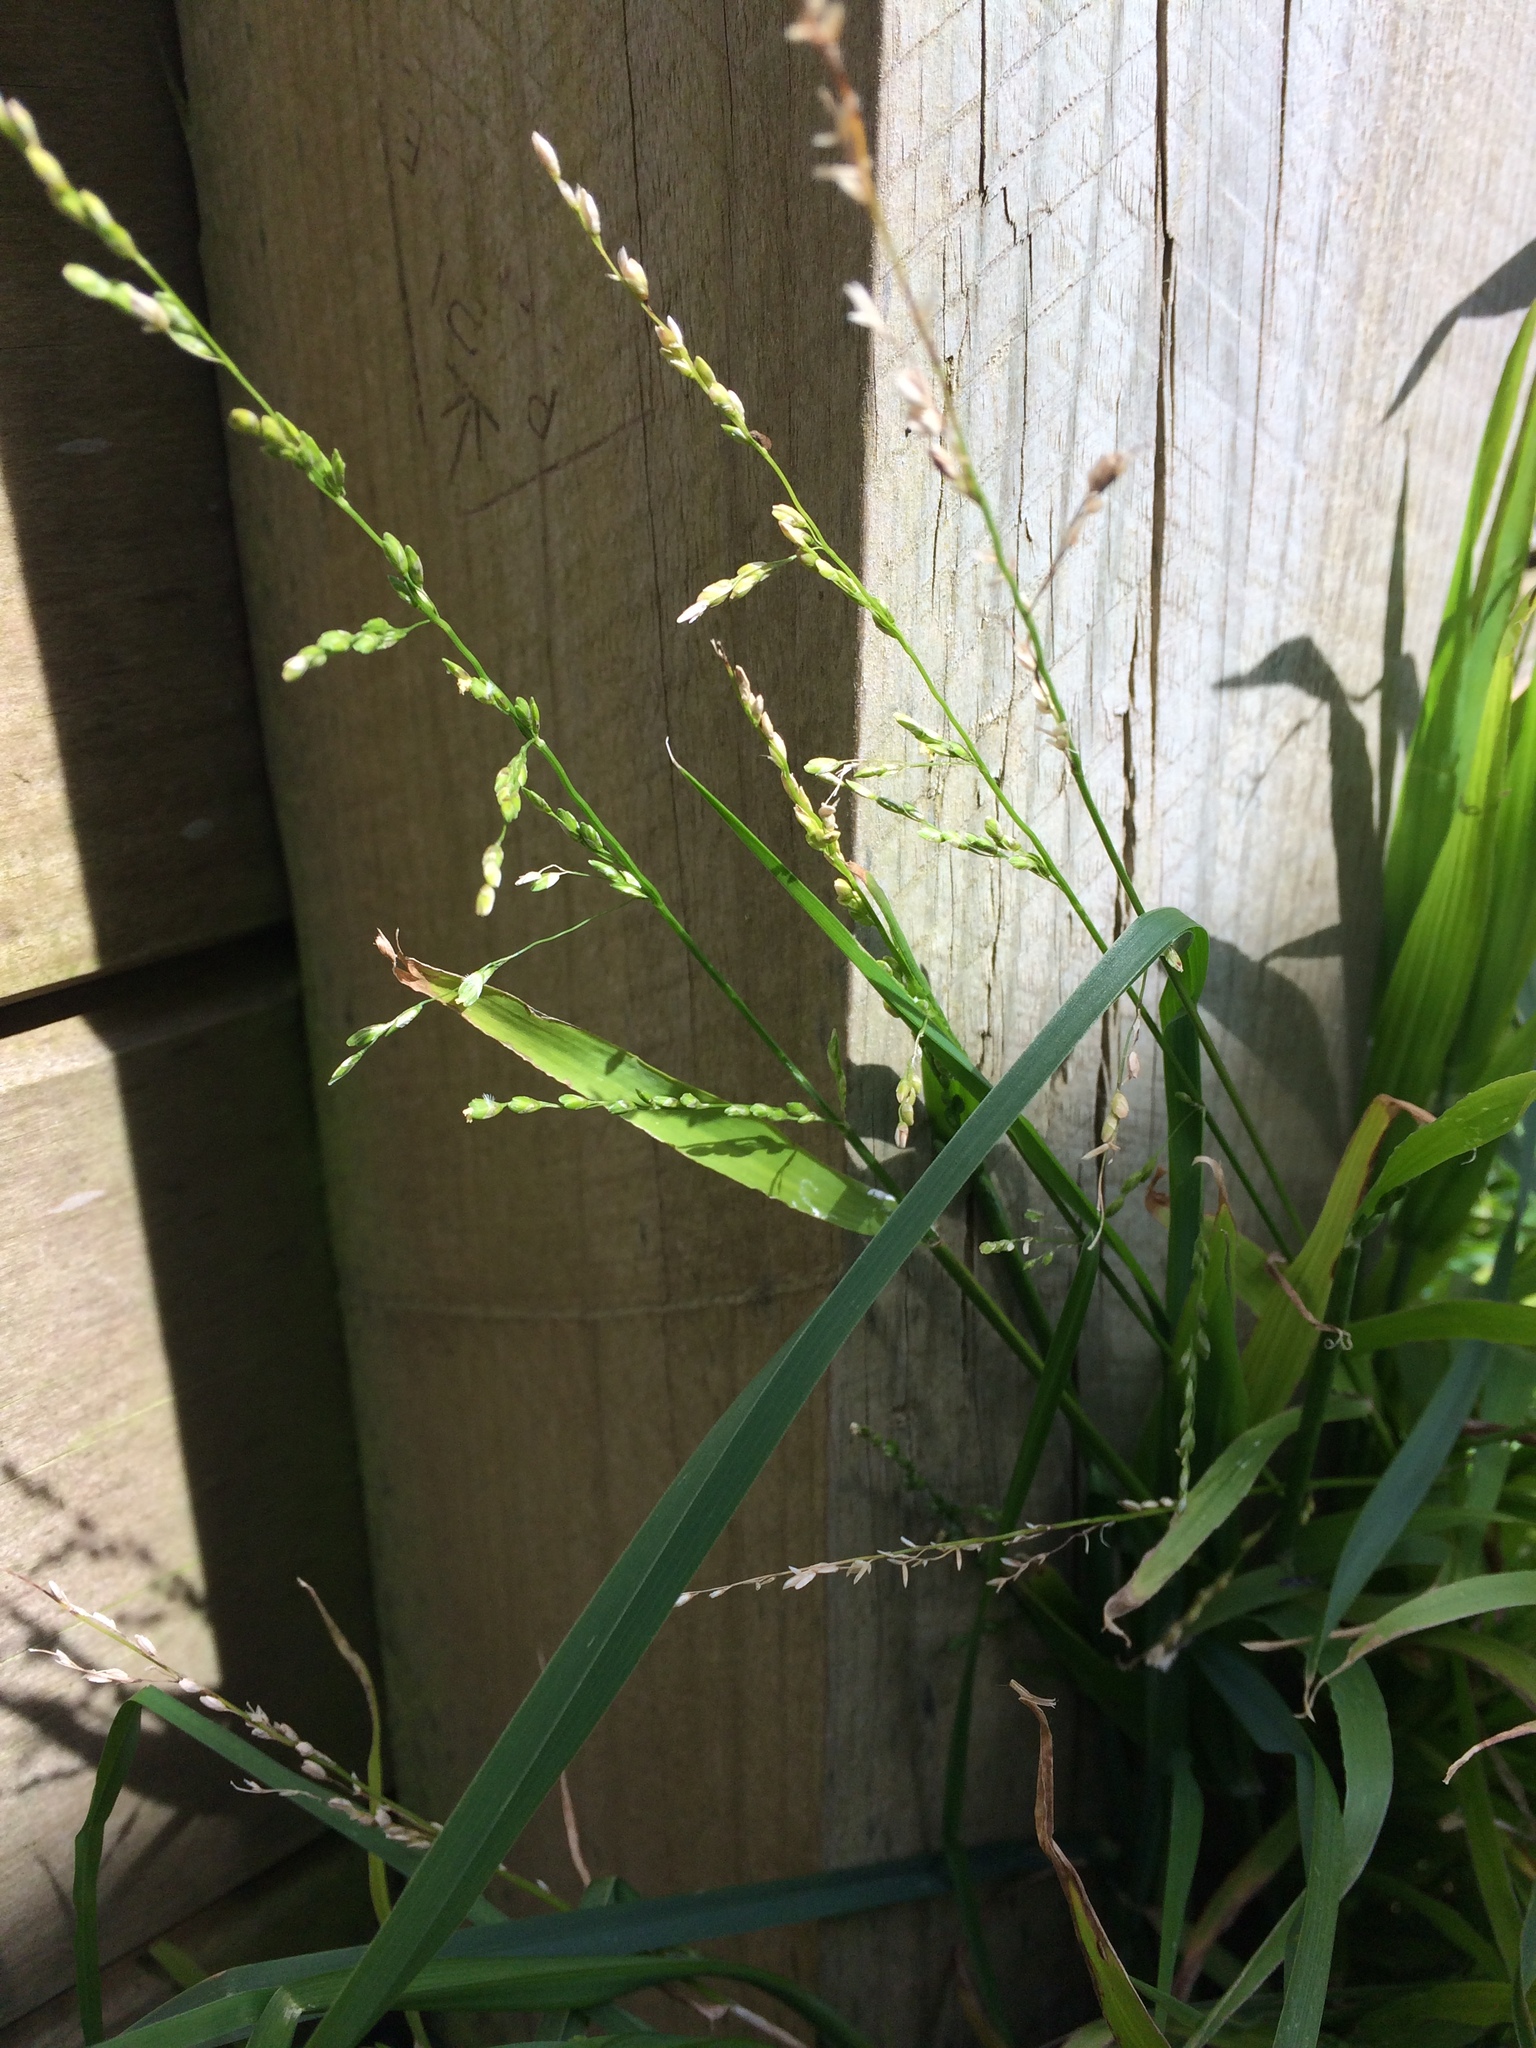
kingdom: Plantae
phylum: Tracheophyta
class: Liliopsida
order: Poales
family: Poaceae
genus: Ehrharta
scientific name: Ehrharta erecta
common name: Panic veldtgrass
